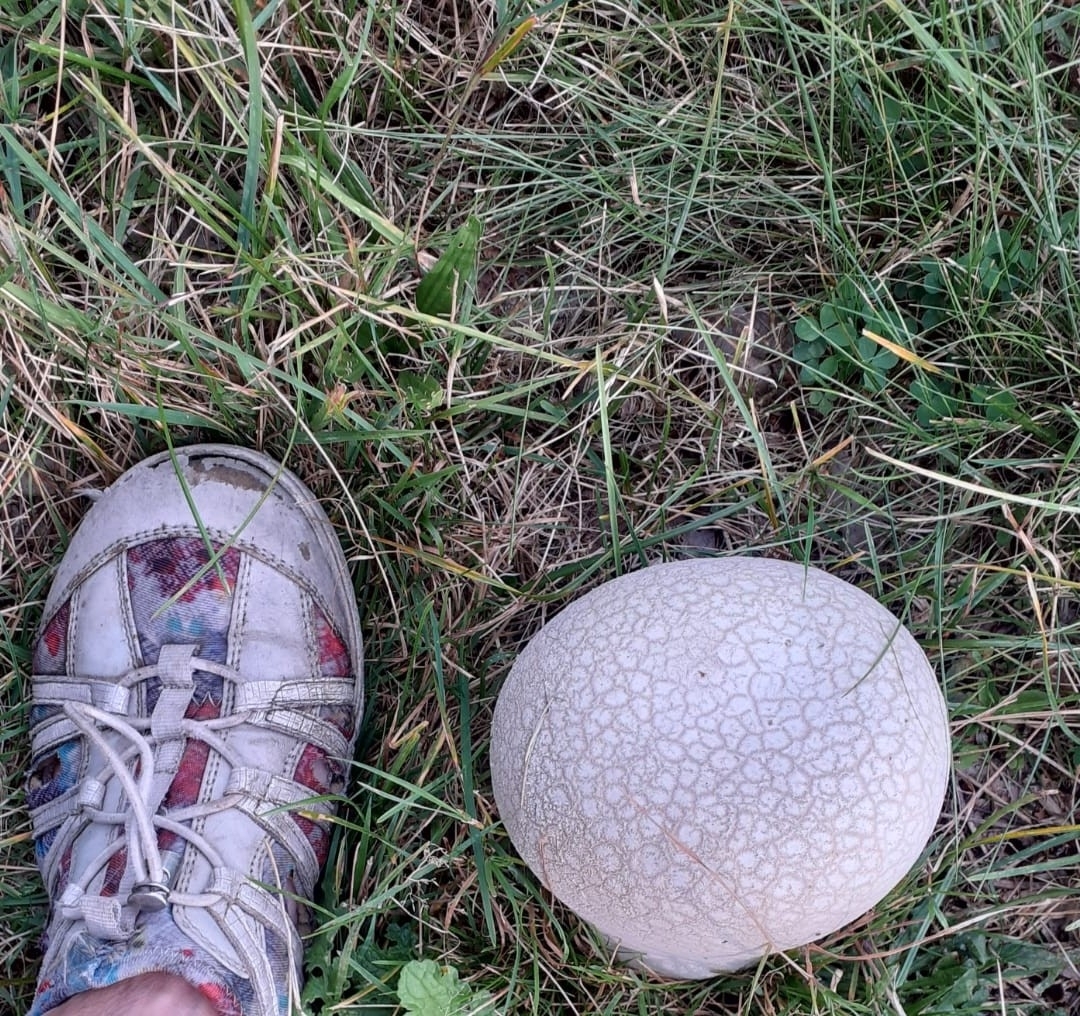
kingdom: Fungi
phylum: Basidiomycota
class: Agaricomycetes
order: Agaricales
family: Lycoperdaceae
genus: Bovistella
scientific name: Bovistella utriformis
